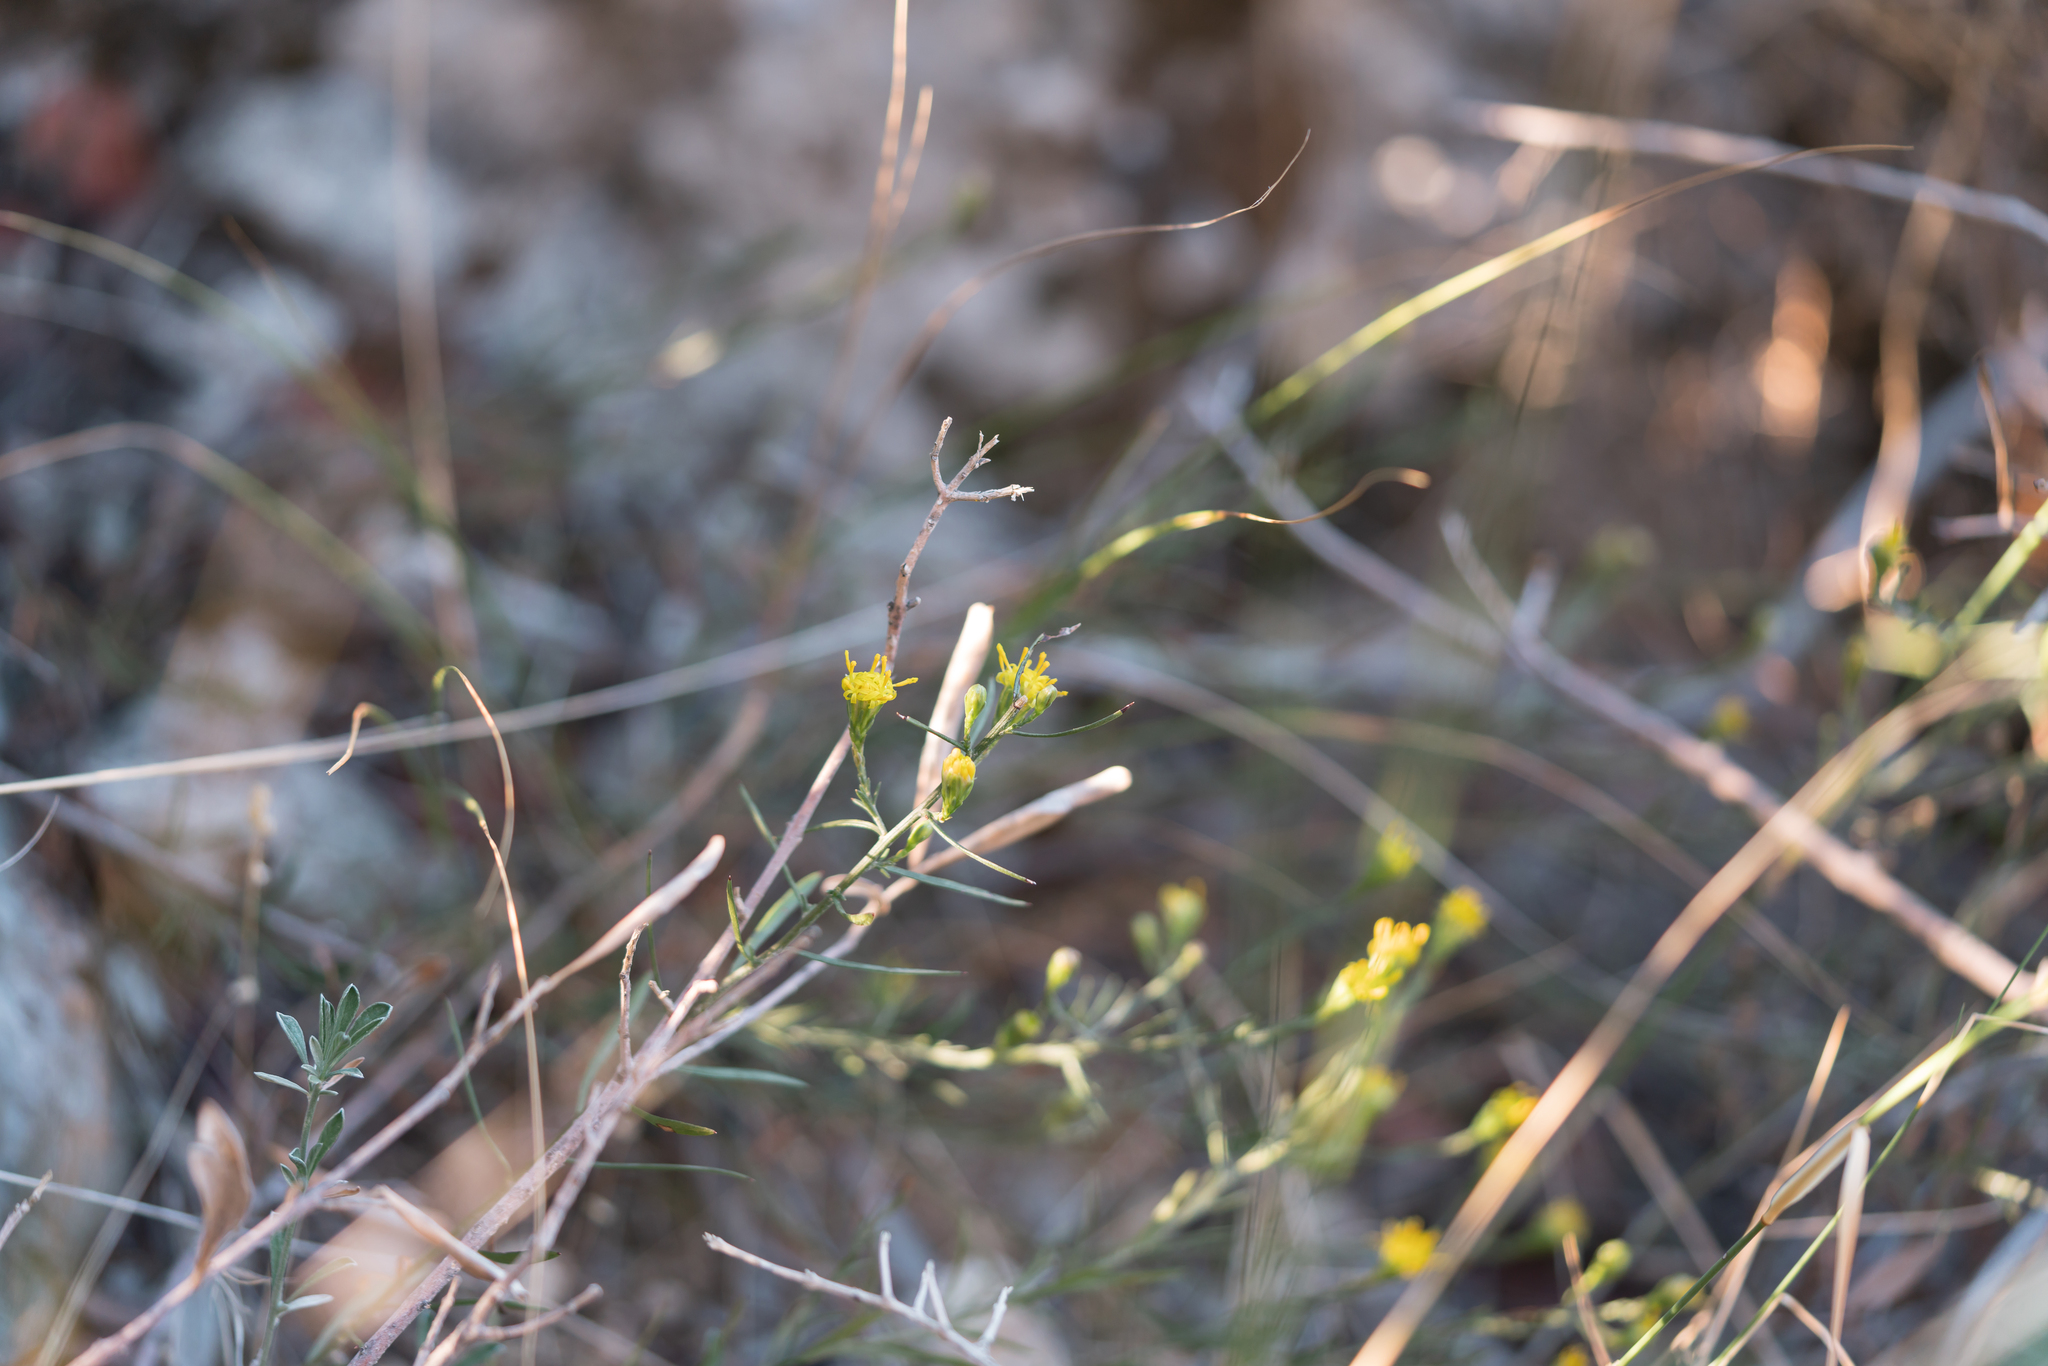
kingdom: Plantae
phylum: Tracheophyta
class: Magnoliopsida
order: Asterales
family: Asteraceae
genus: Galatella
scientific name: Galatella cretica
